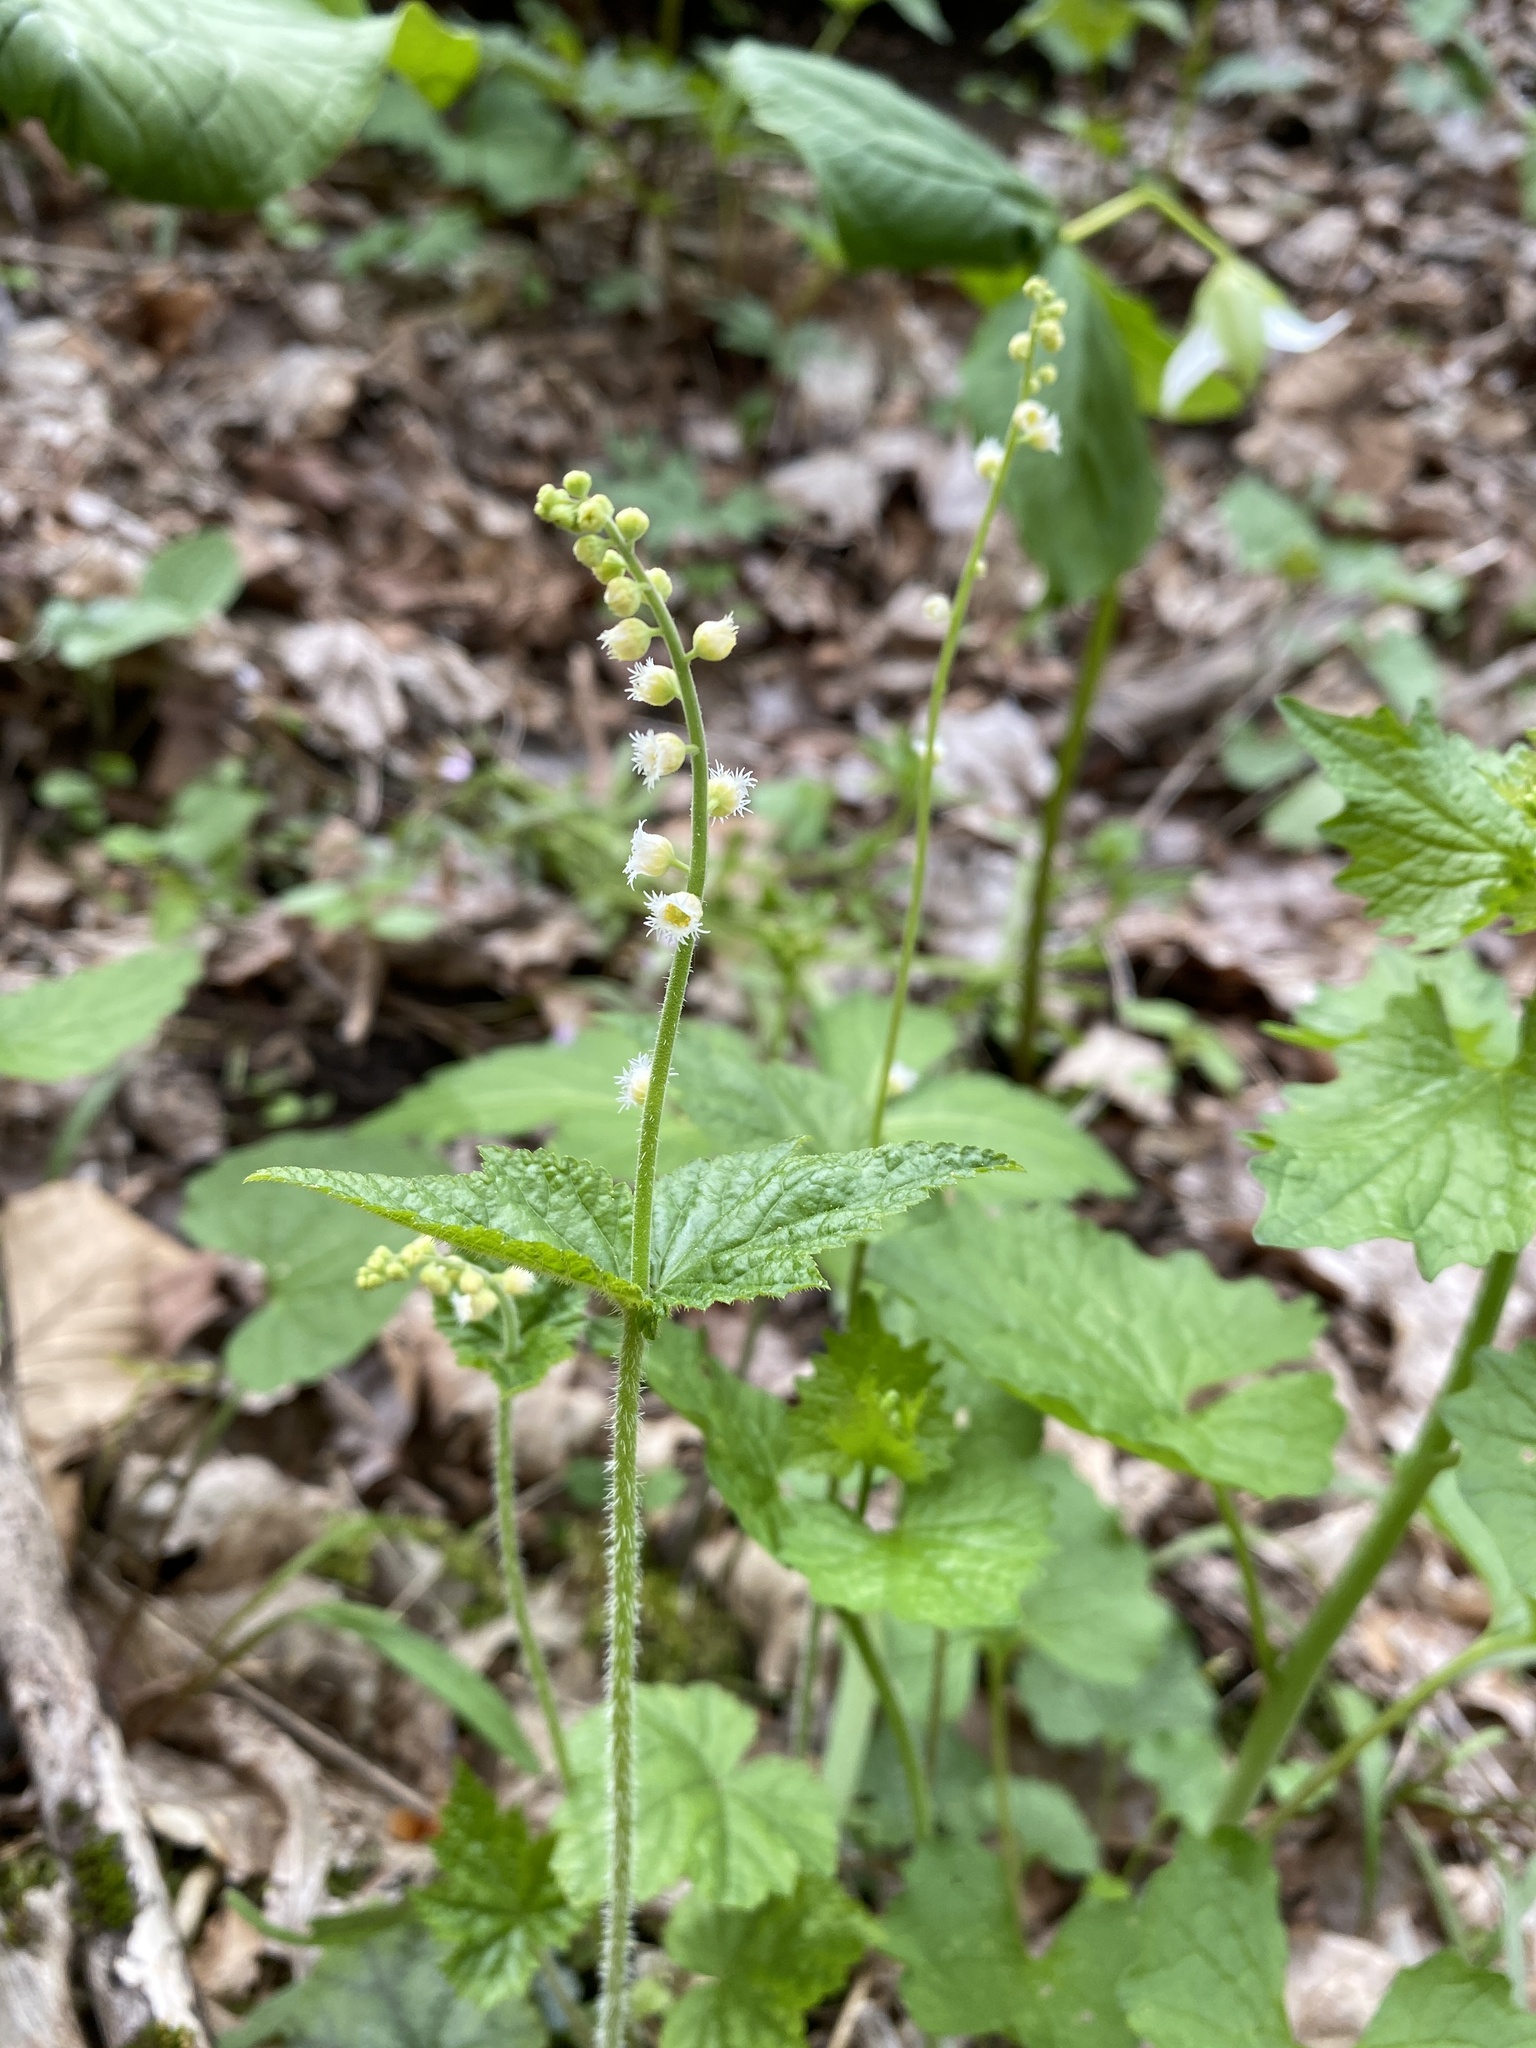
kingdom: Plantae
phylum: Tracheophyta
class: Magnoliopsida
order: Saxifragales
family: Saxifragaceae
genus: Mitella
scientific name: Mitella diphylla
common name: Coolwort
